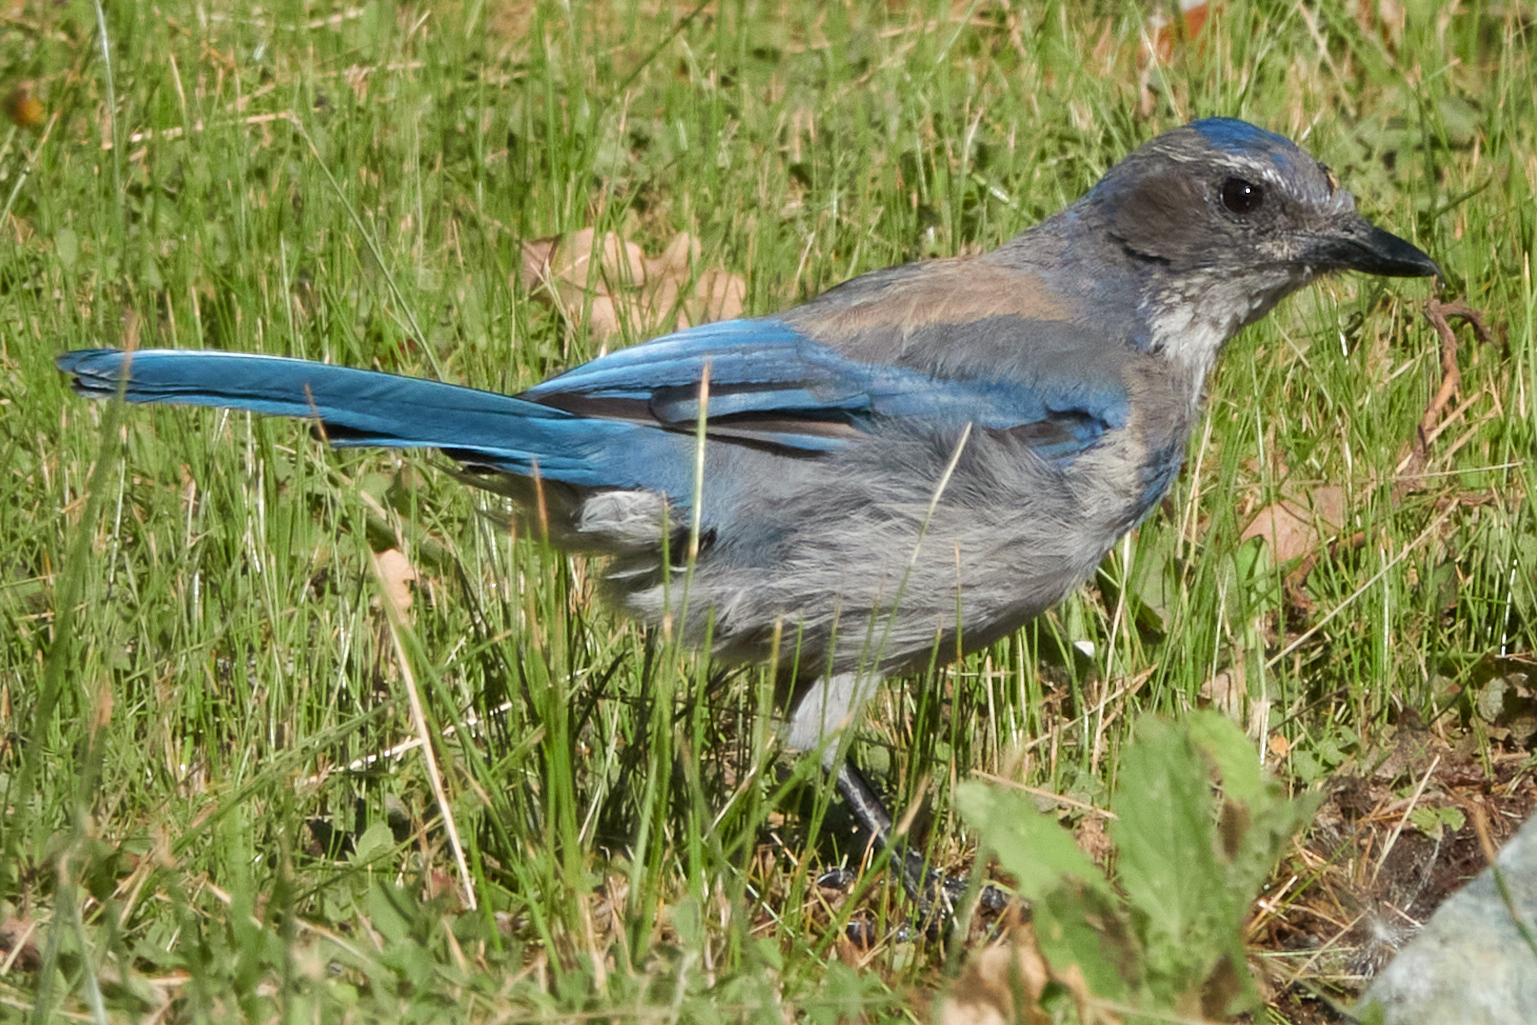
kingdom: Animalia
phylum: Chordata
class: Aves
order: Passeriformes
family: Corvidae
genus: Aphelocoma
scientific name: Aphelocoma californica
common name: California scrub-jay
